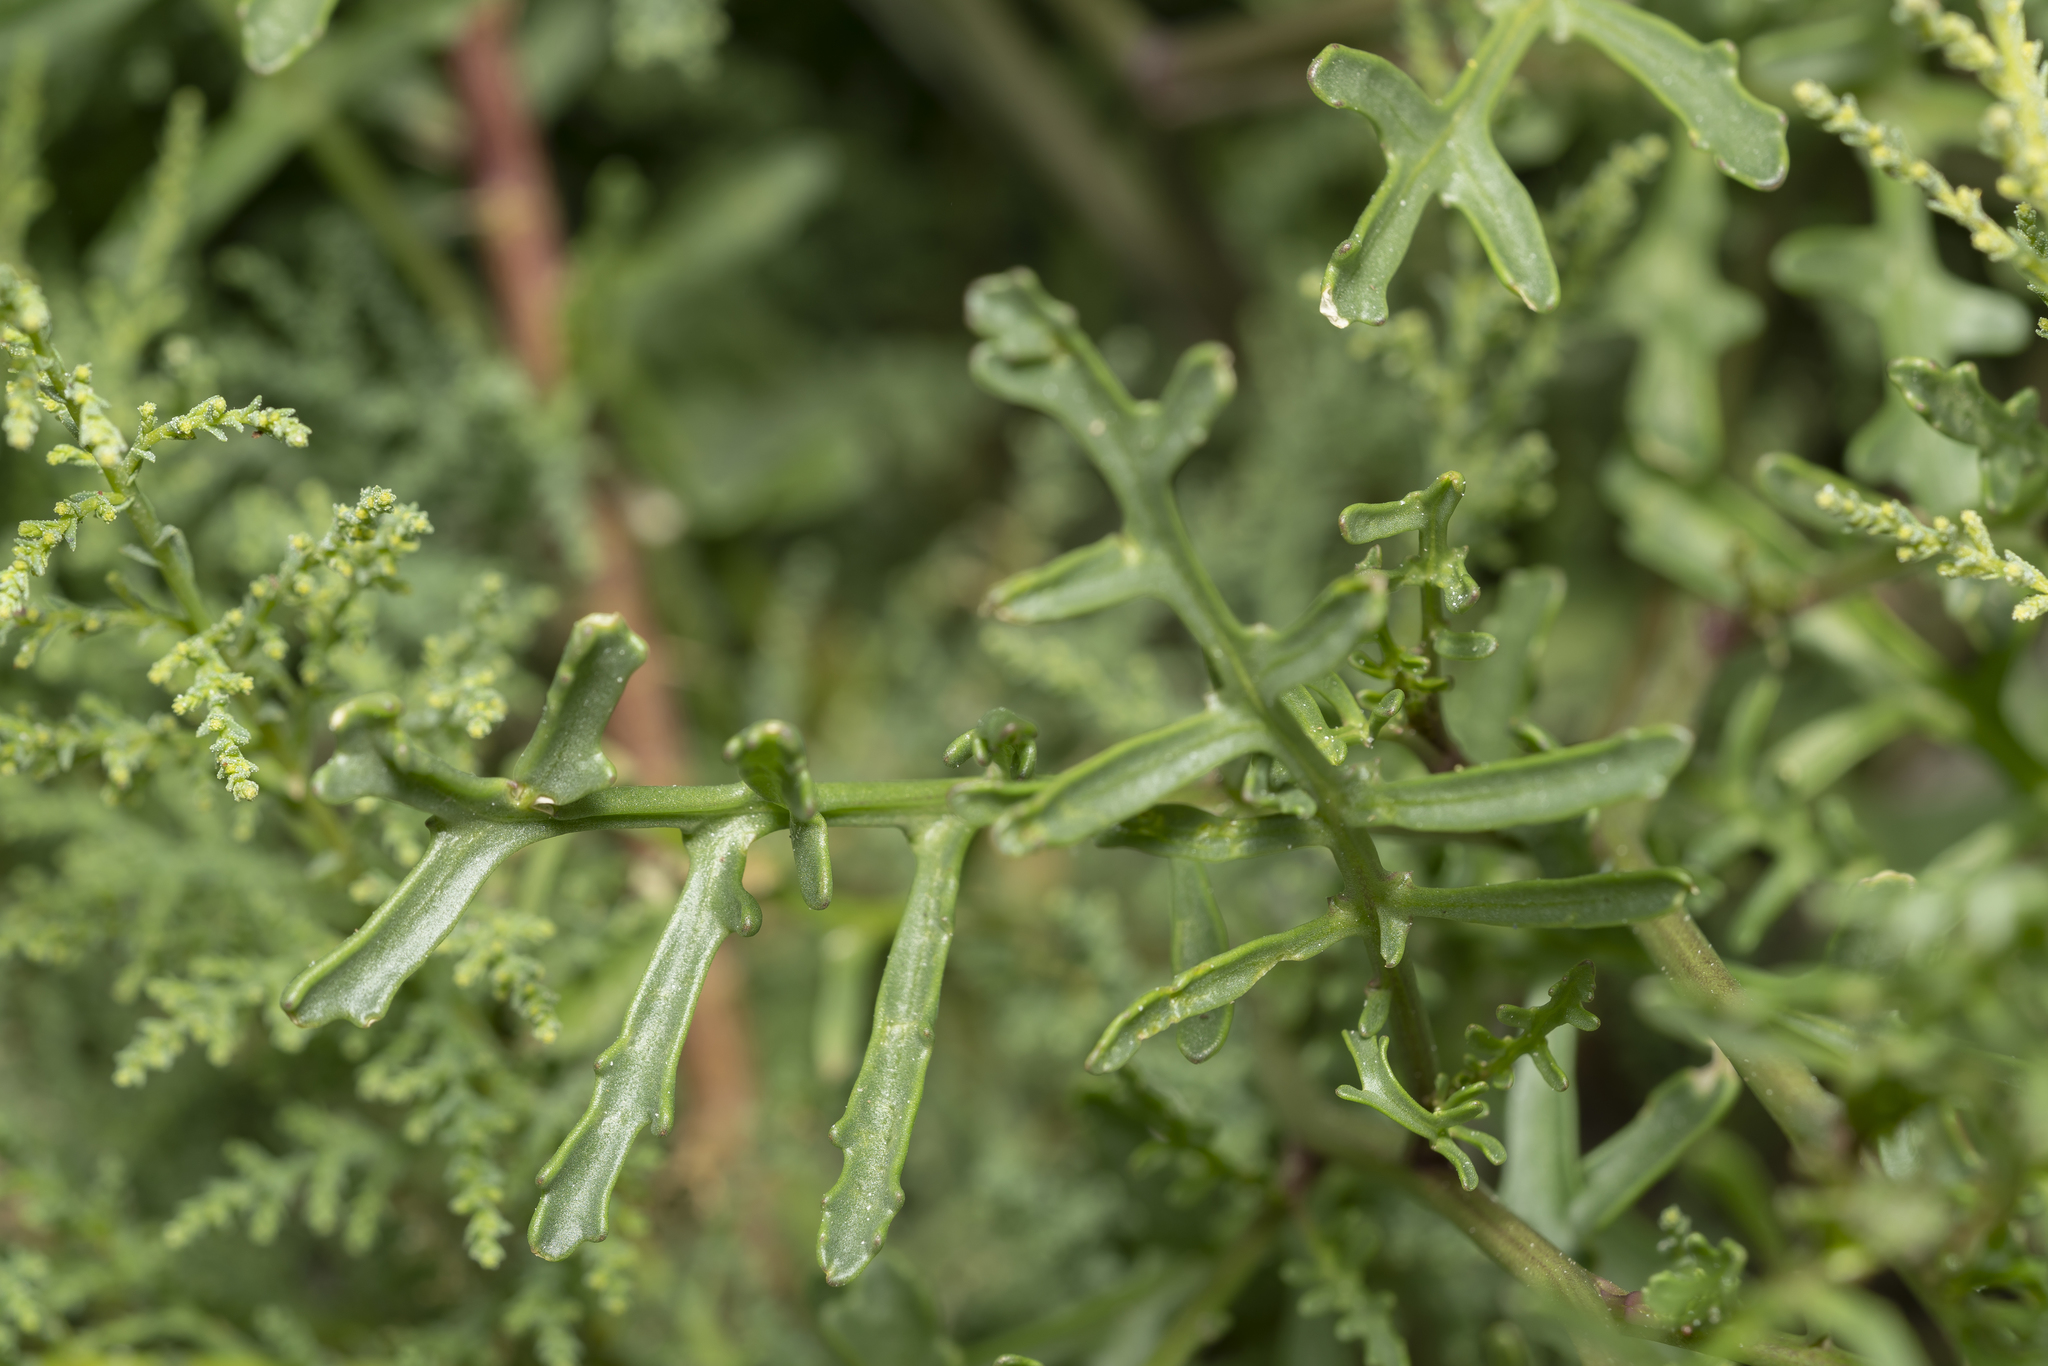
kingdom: Plantae
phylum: Tracheophyta
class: Magnoliopsida
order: Brassicales
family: Brassicaceae
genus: Cakile
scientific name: Cakile maritima
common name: Sea rocket
